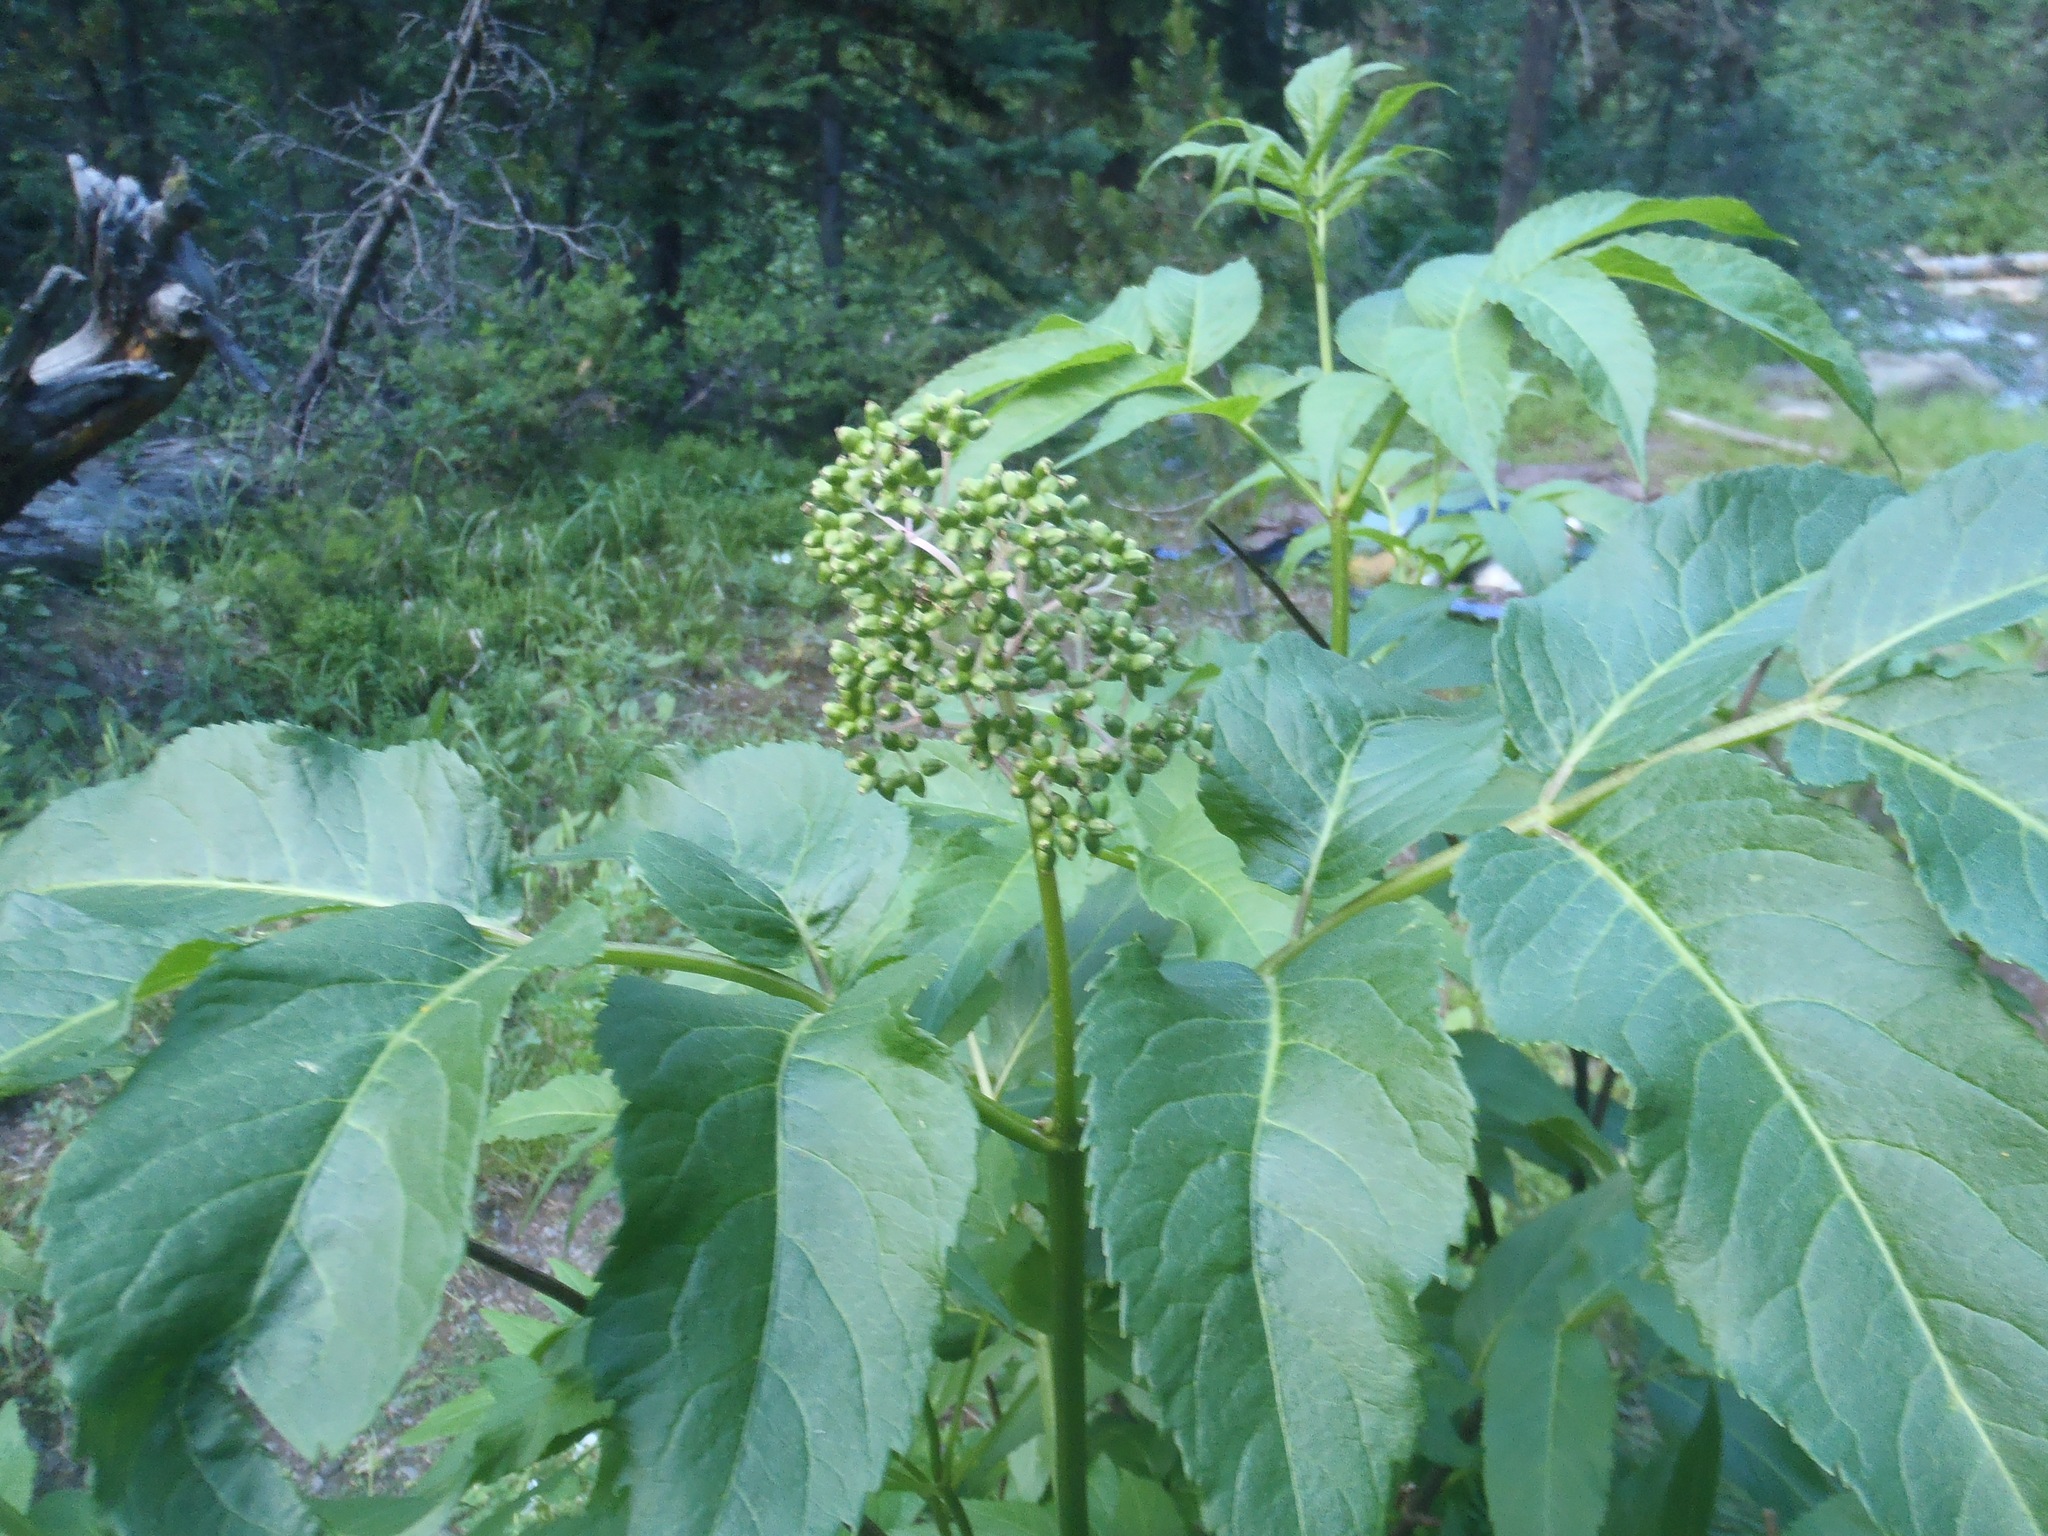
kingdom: Plantae
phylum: Tracheophyta
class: Magnoliopsida
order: Dipsacales
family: Viburnaceae
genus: Sambucus
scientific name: Sambucus racemosa
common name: Red-berried elder
